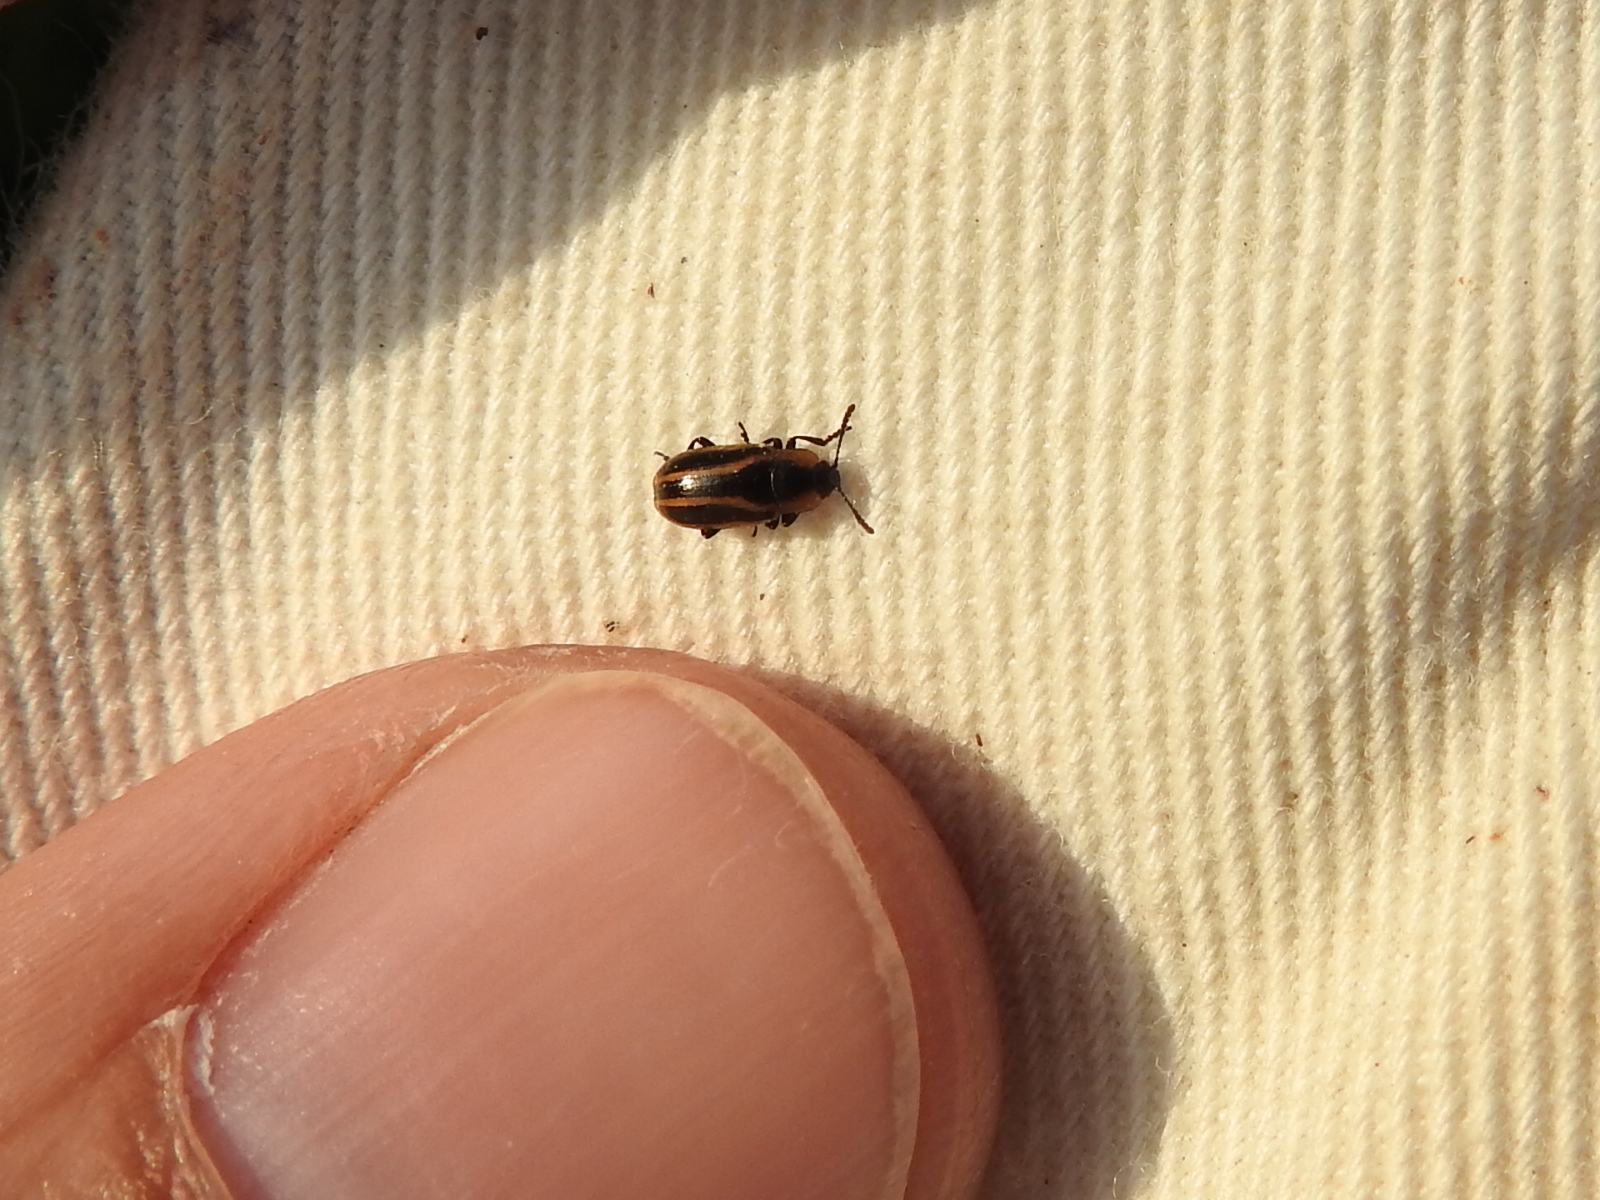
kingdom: Animalia
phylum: Arthropoda
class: Insecta
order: Coleoptera
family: Chrysomelidae
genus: Prasocuris
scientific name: Prasocuris vittata
